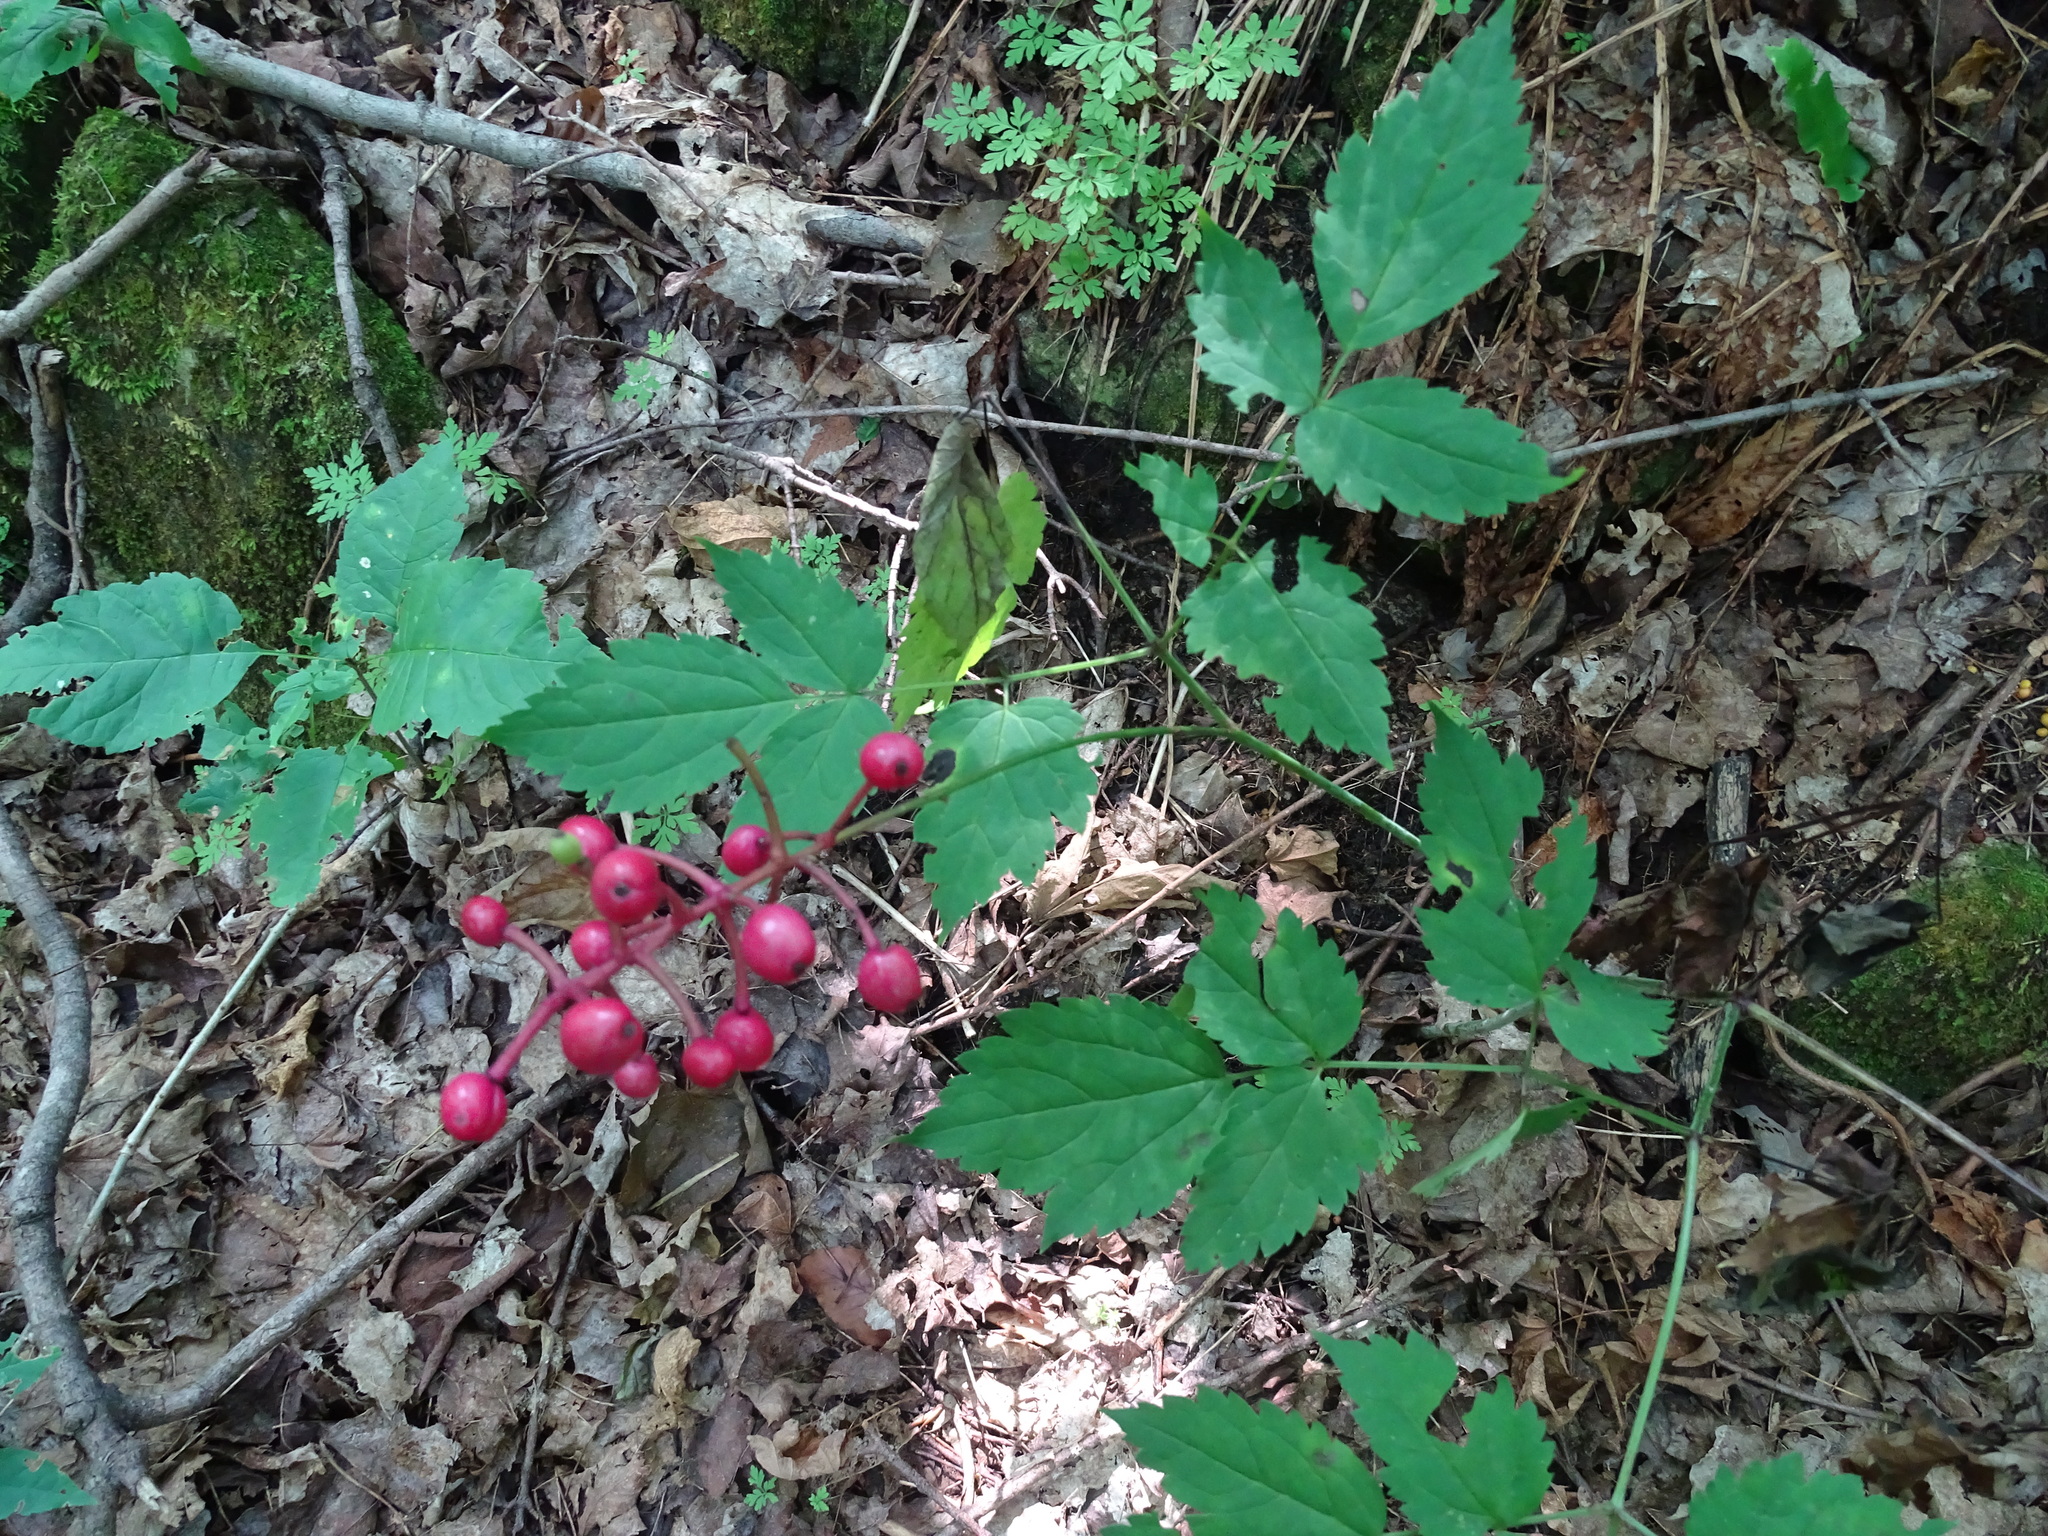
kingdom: Plantae
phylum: Tracheophyta
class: Magnoliopsida
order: Ranunculales
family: Ranunculaceae
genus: Actaea
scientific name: Actaea ludovici
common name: Ludovic's baneberry
